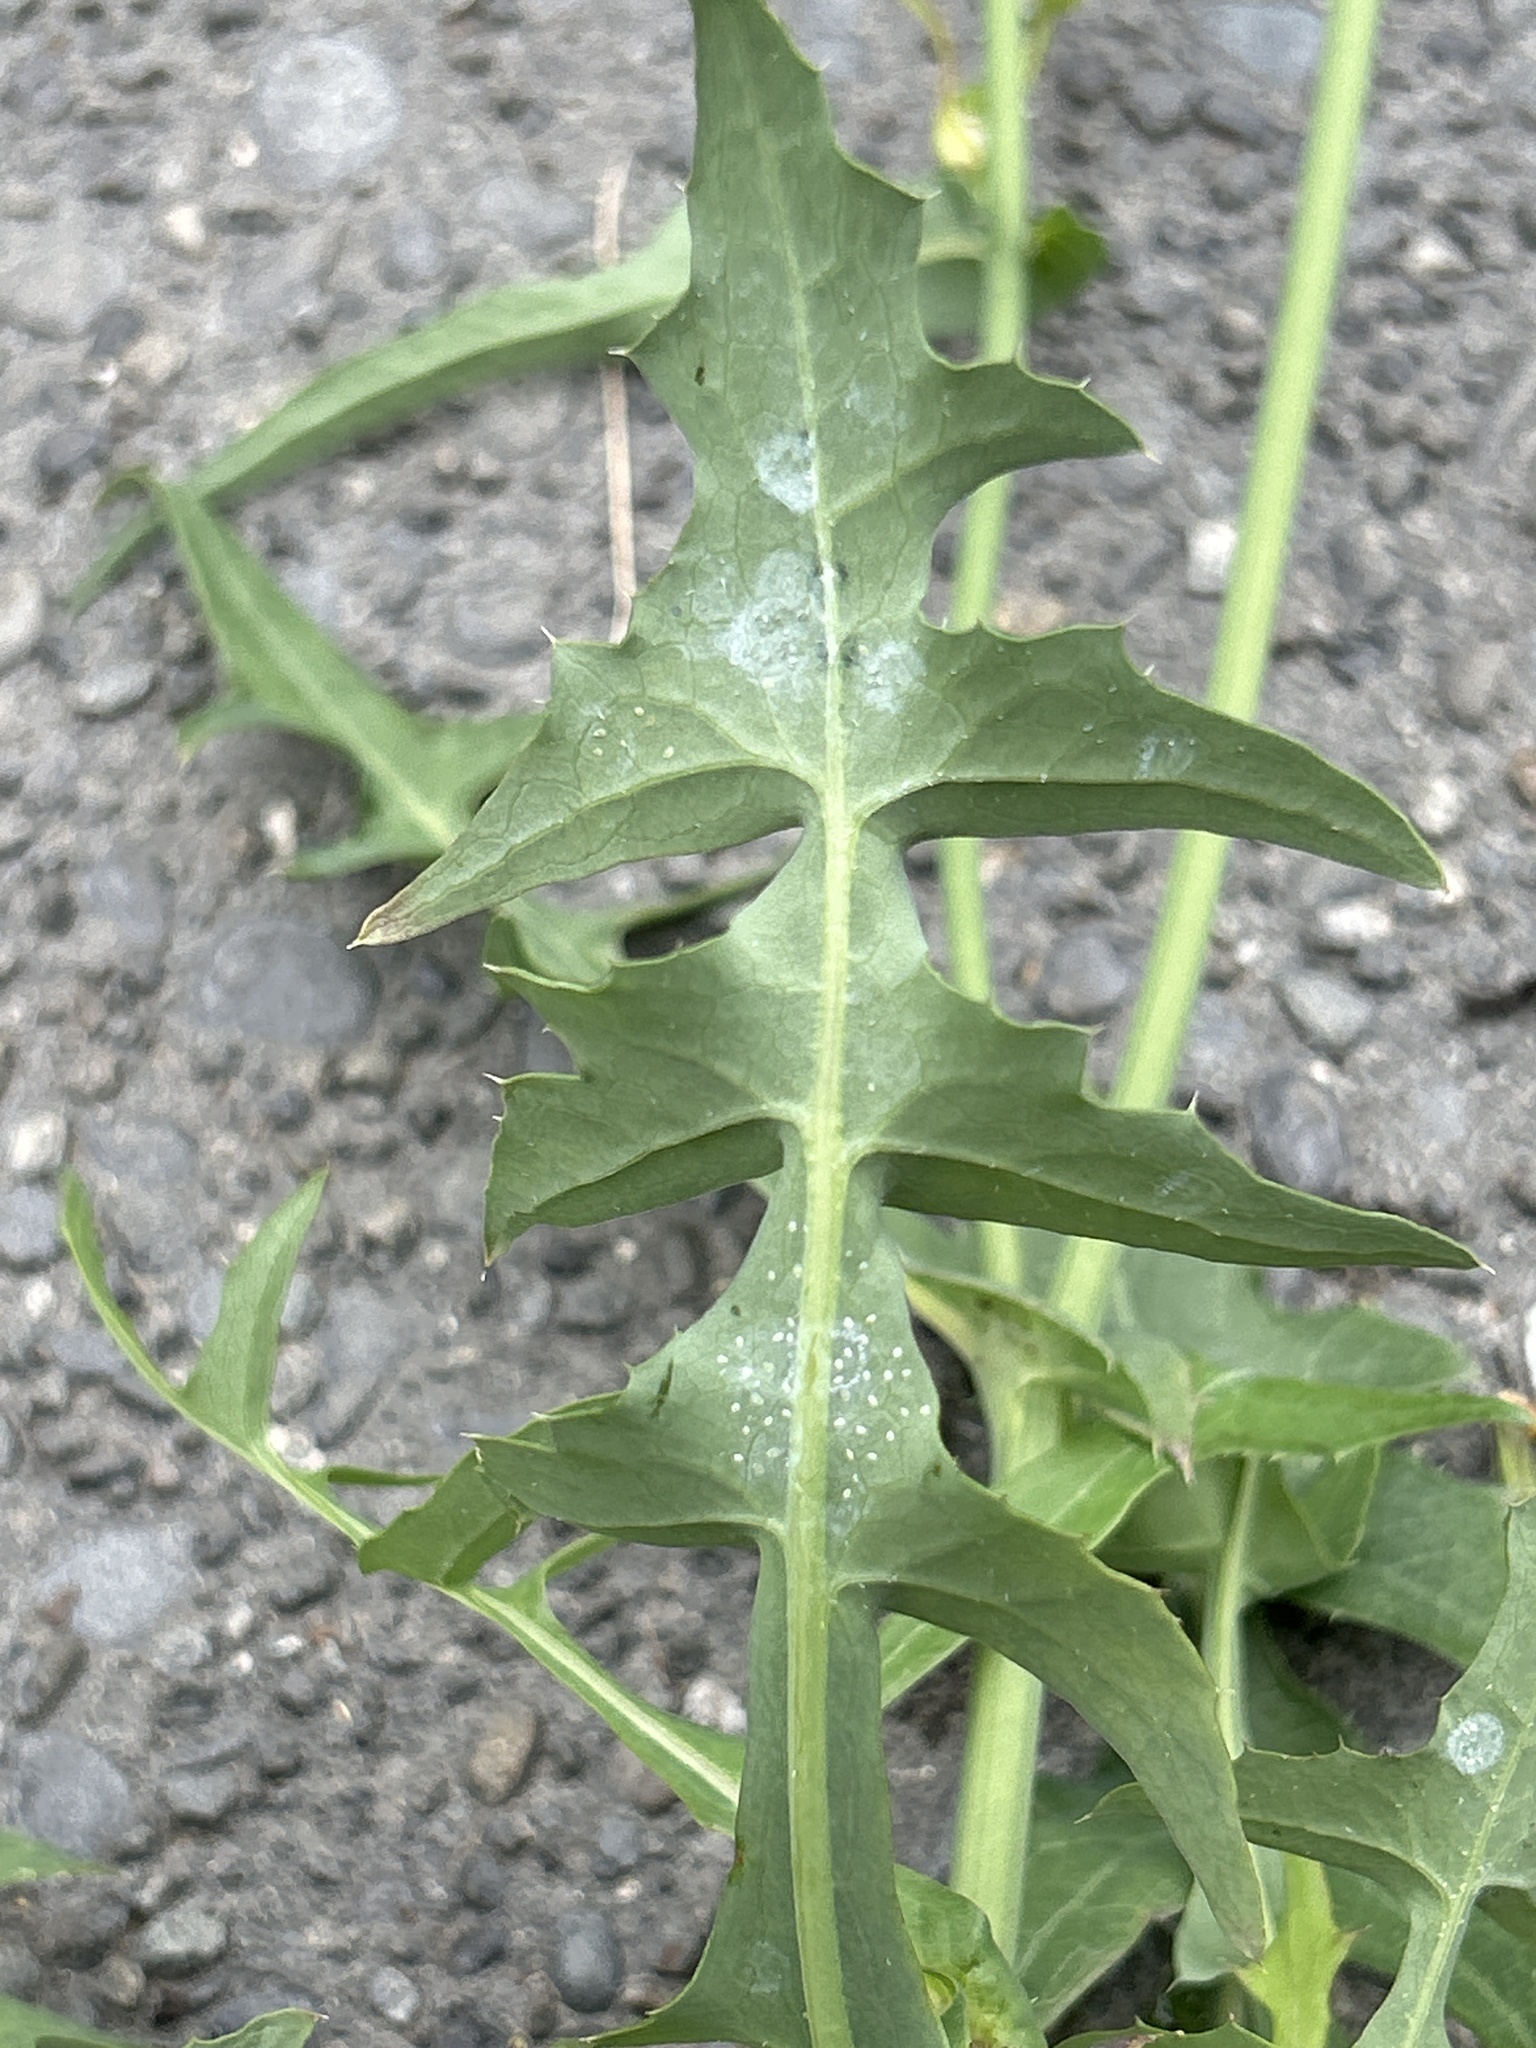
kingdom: Plantae
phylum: Tracheophyta
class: Magnoliopsida
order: Asterales
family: Asteraceae
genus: Sonchus
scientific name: Sonchus oleraceus
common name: Common sowthistle
